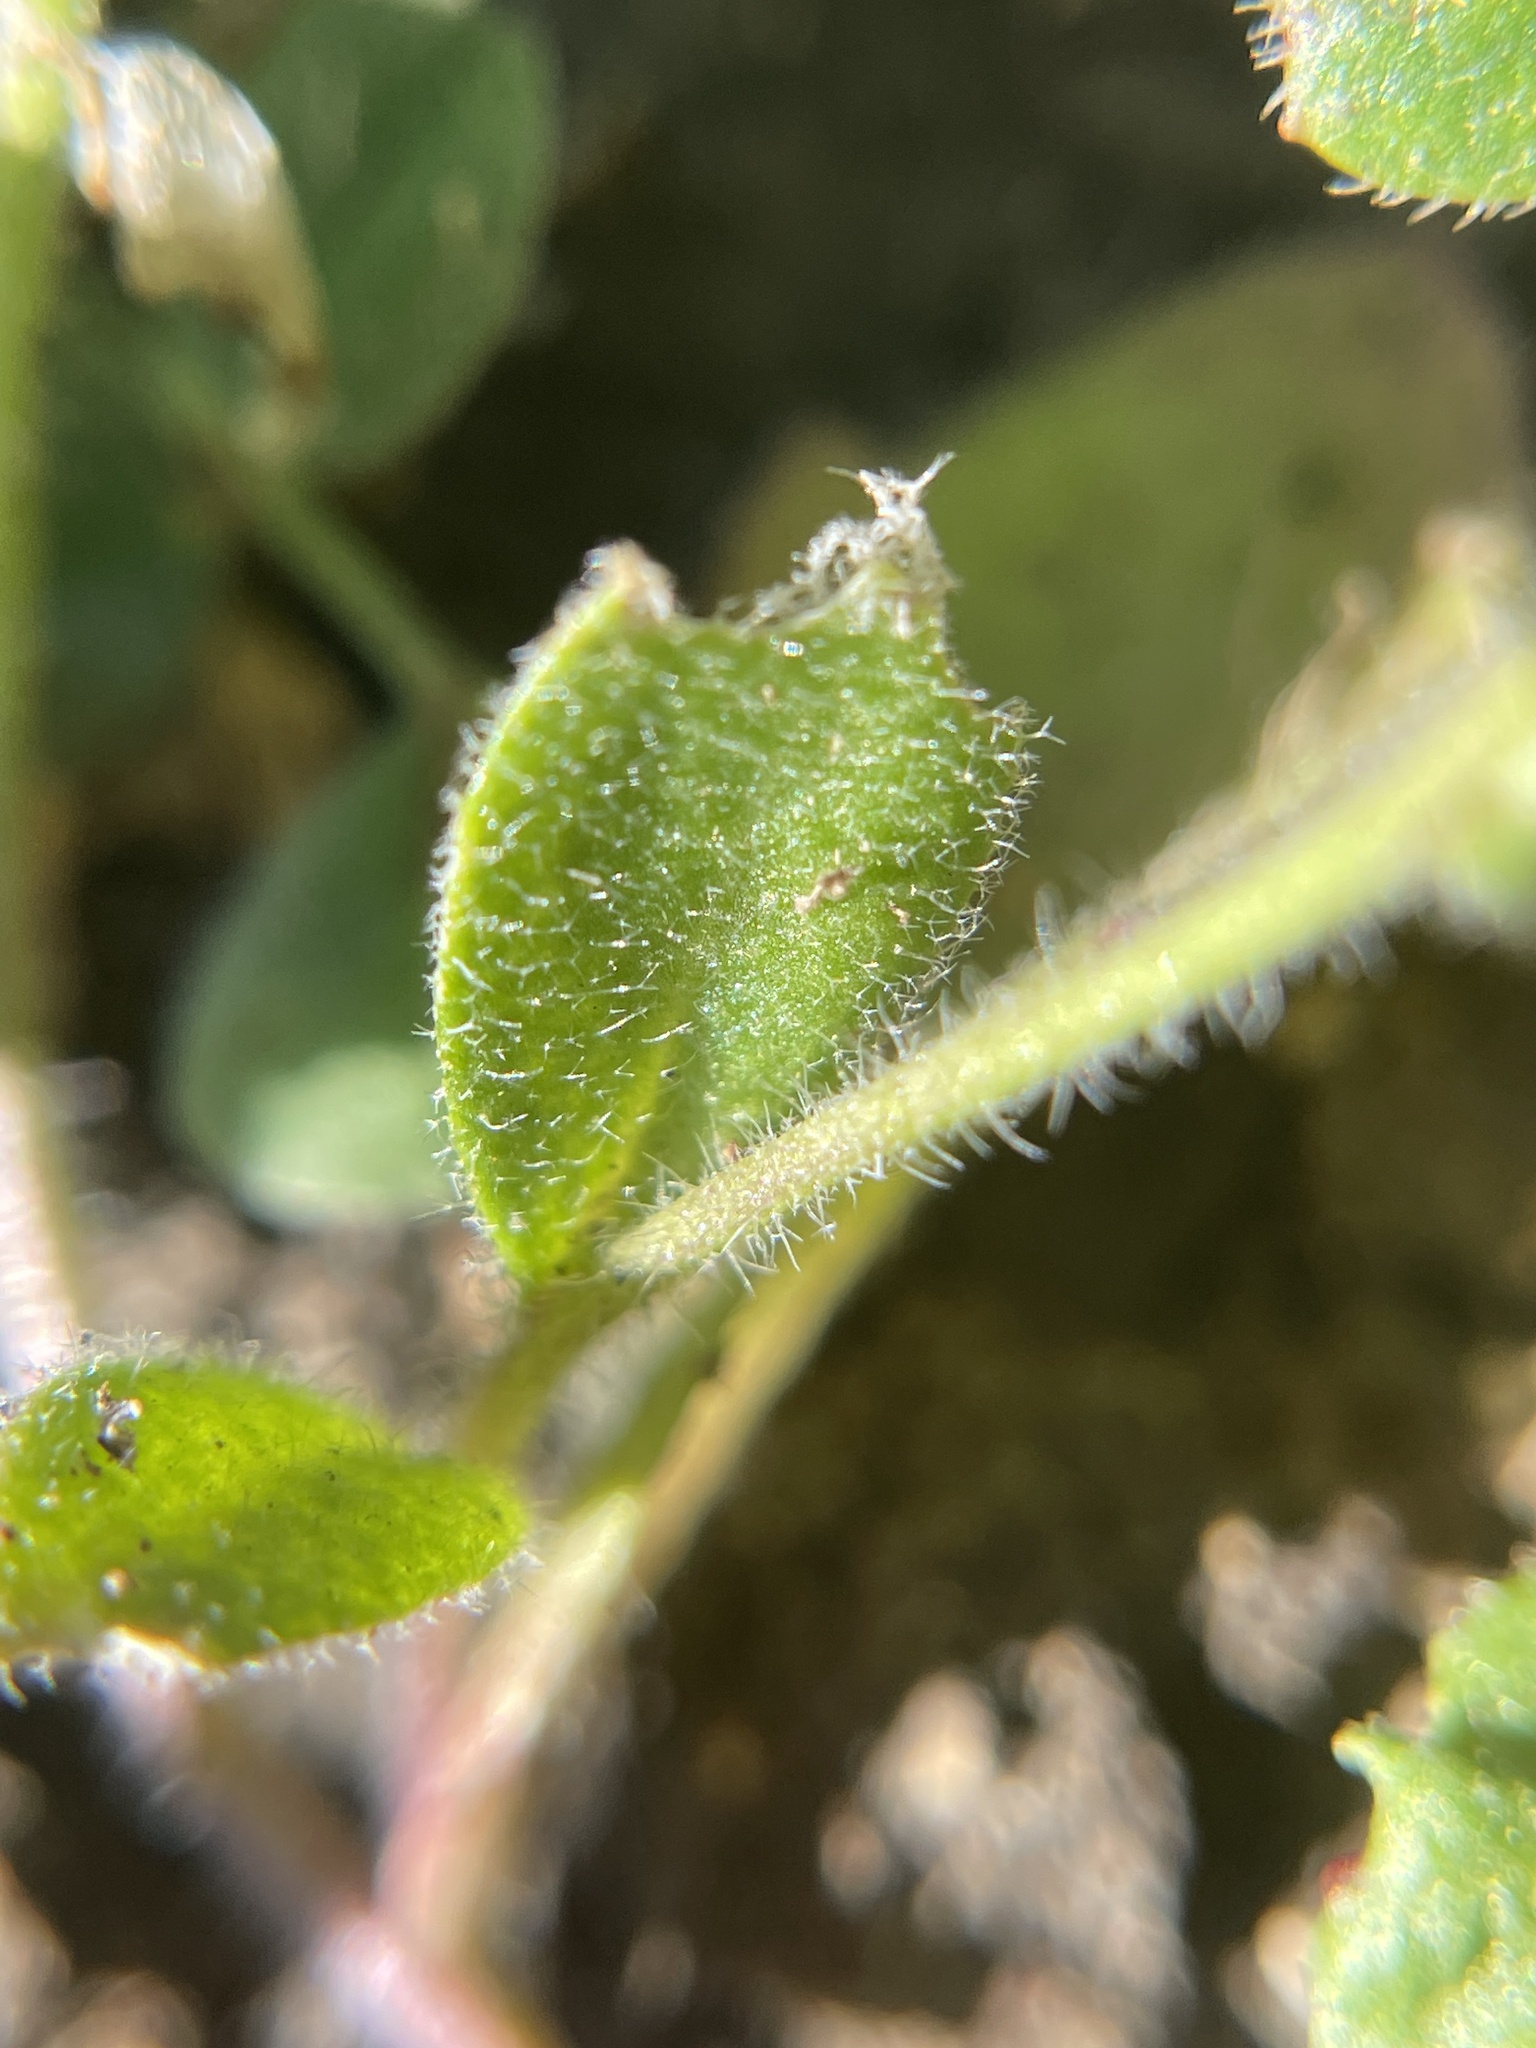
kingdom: Plantae
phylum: Tracheophyta
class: Magnoliopsida
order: Brassicales
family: Brassicaceae
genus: Tomostima
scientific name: Tomostima platycarpa
